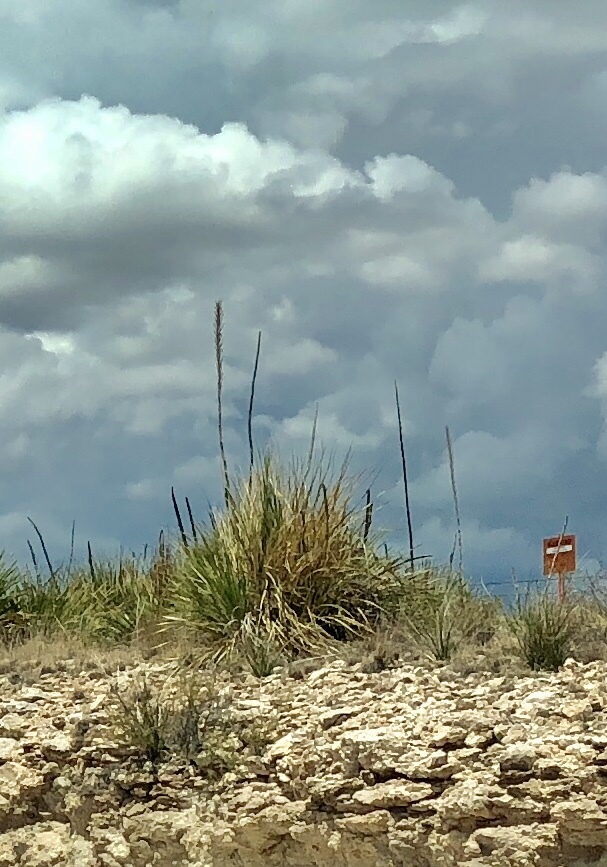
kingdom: Plantae
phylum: Tracheophyta
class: Liliopsida
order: Asparagales
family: Asparagaceae
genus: Dasylirion
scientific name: Dasylirion wheeleri
